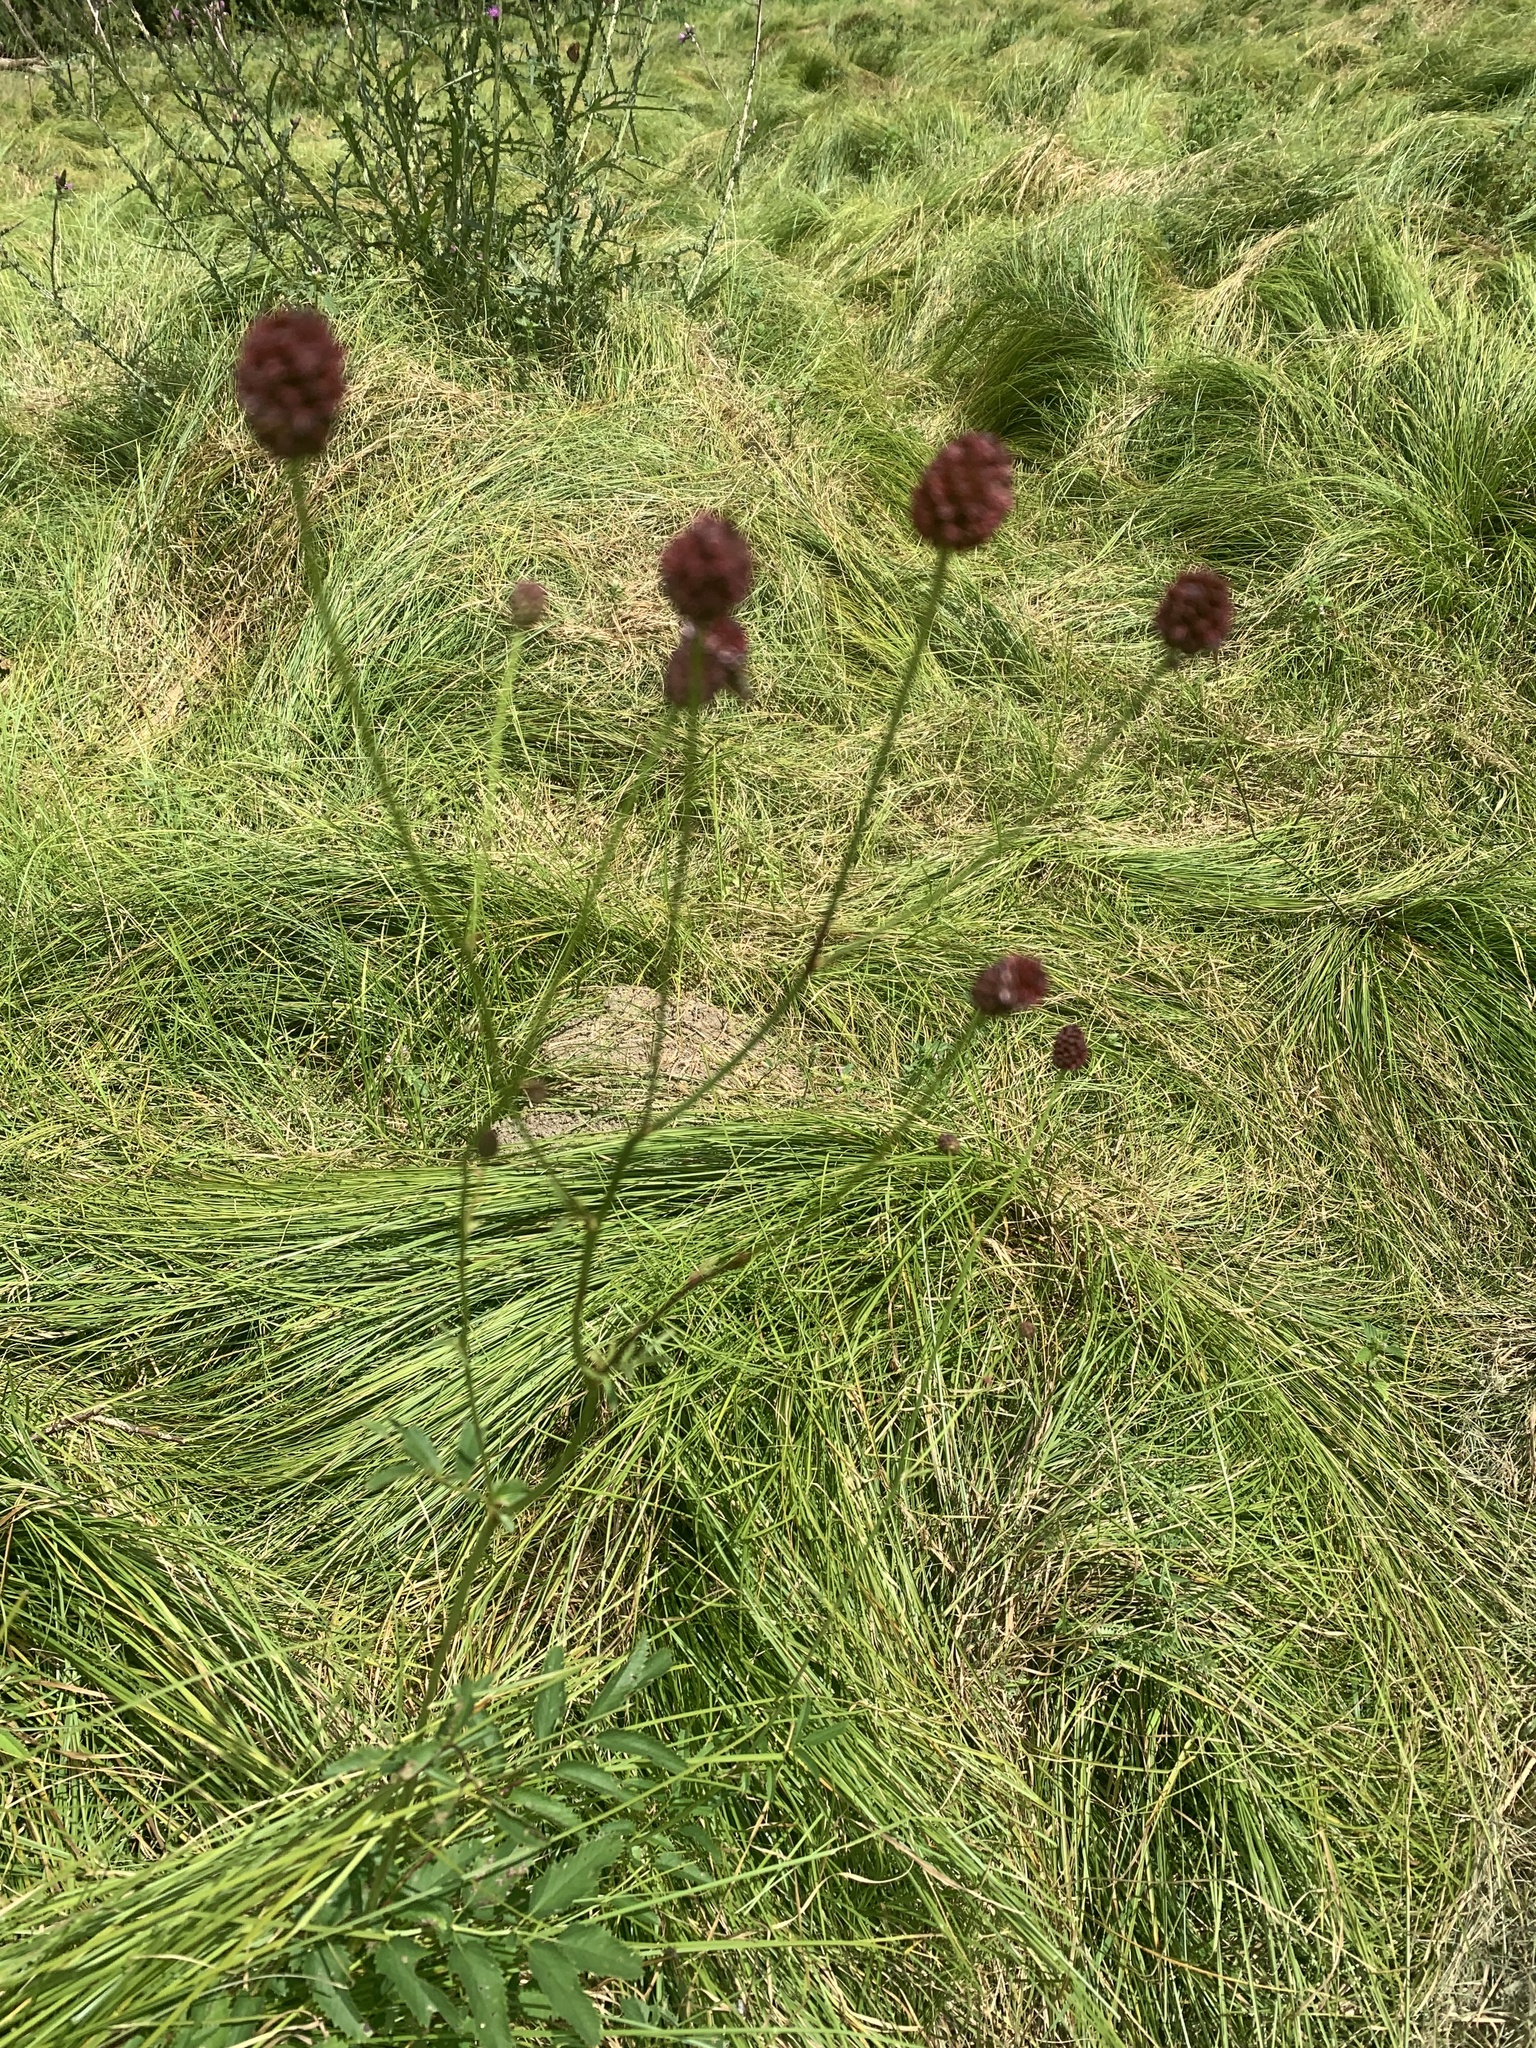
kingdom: Plantae
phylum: Tracheophyta
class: Magnoliopsida
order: Rosales
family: Rosaceae
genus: Sanguisorba
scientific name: Sanguisorba officinalis
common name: Great burnet
